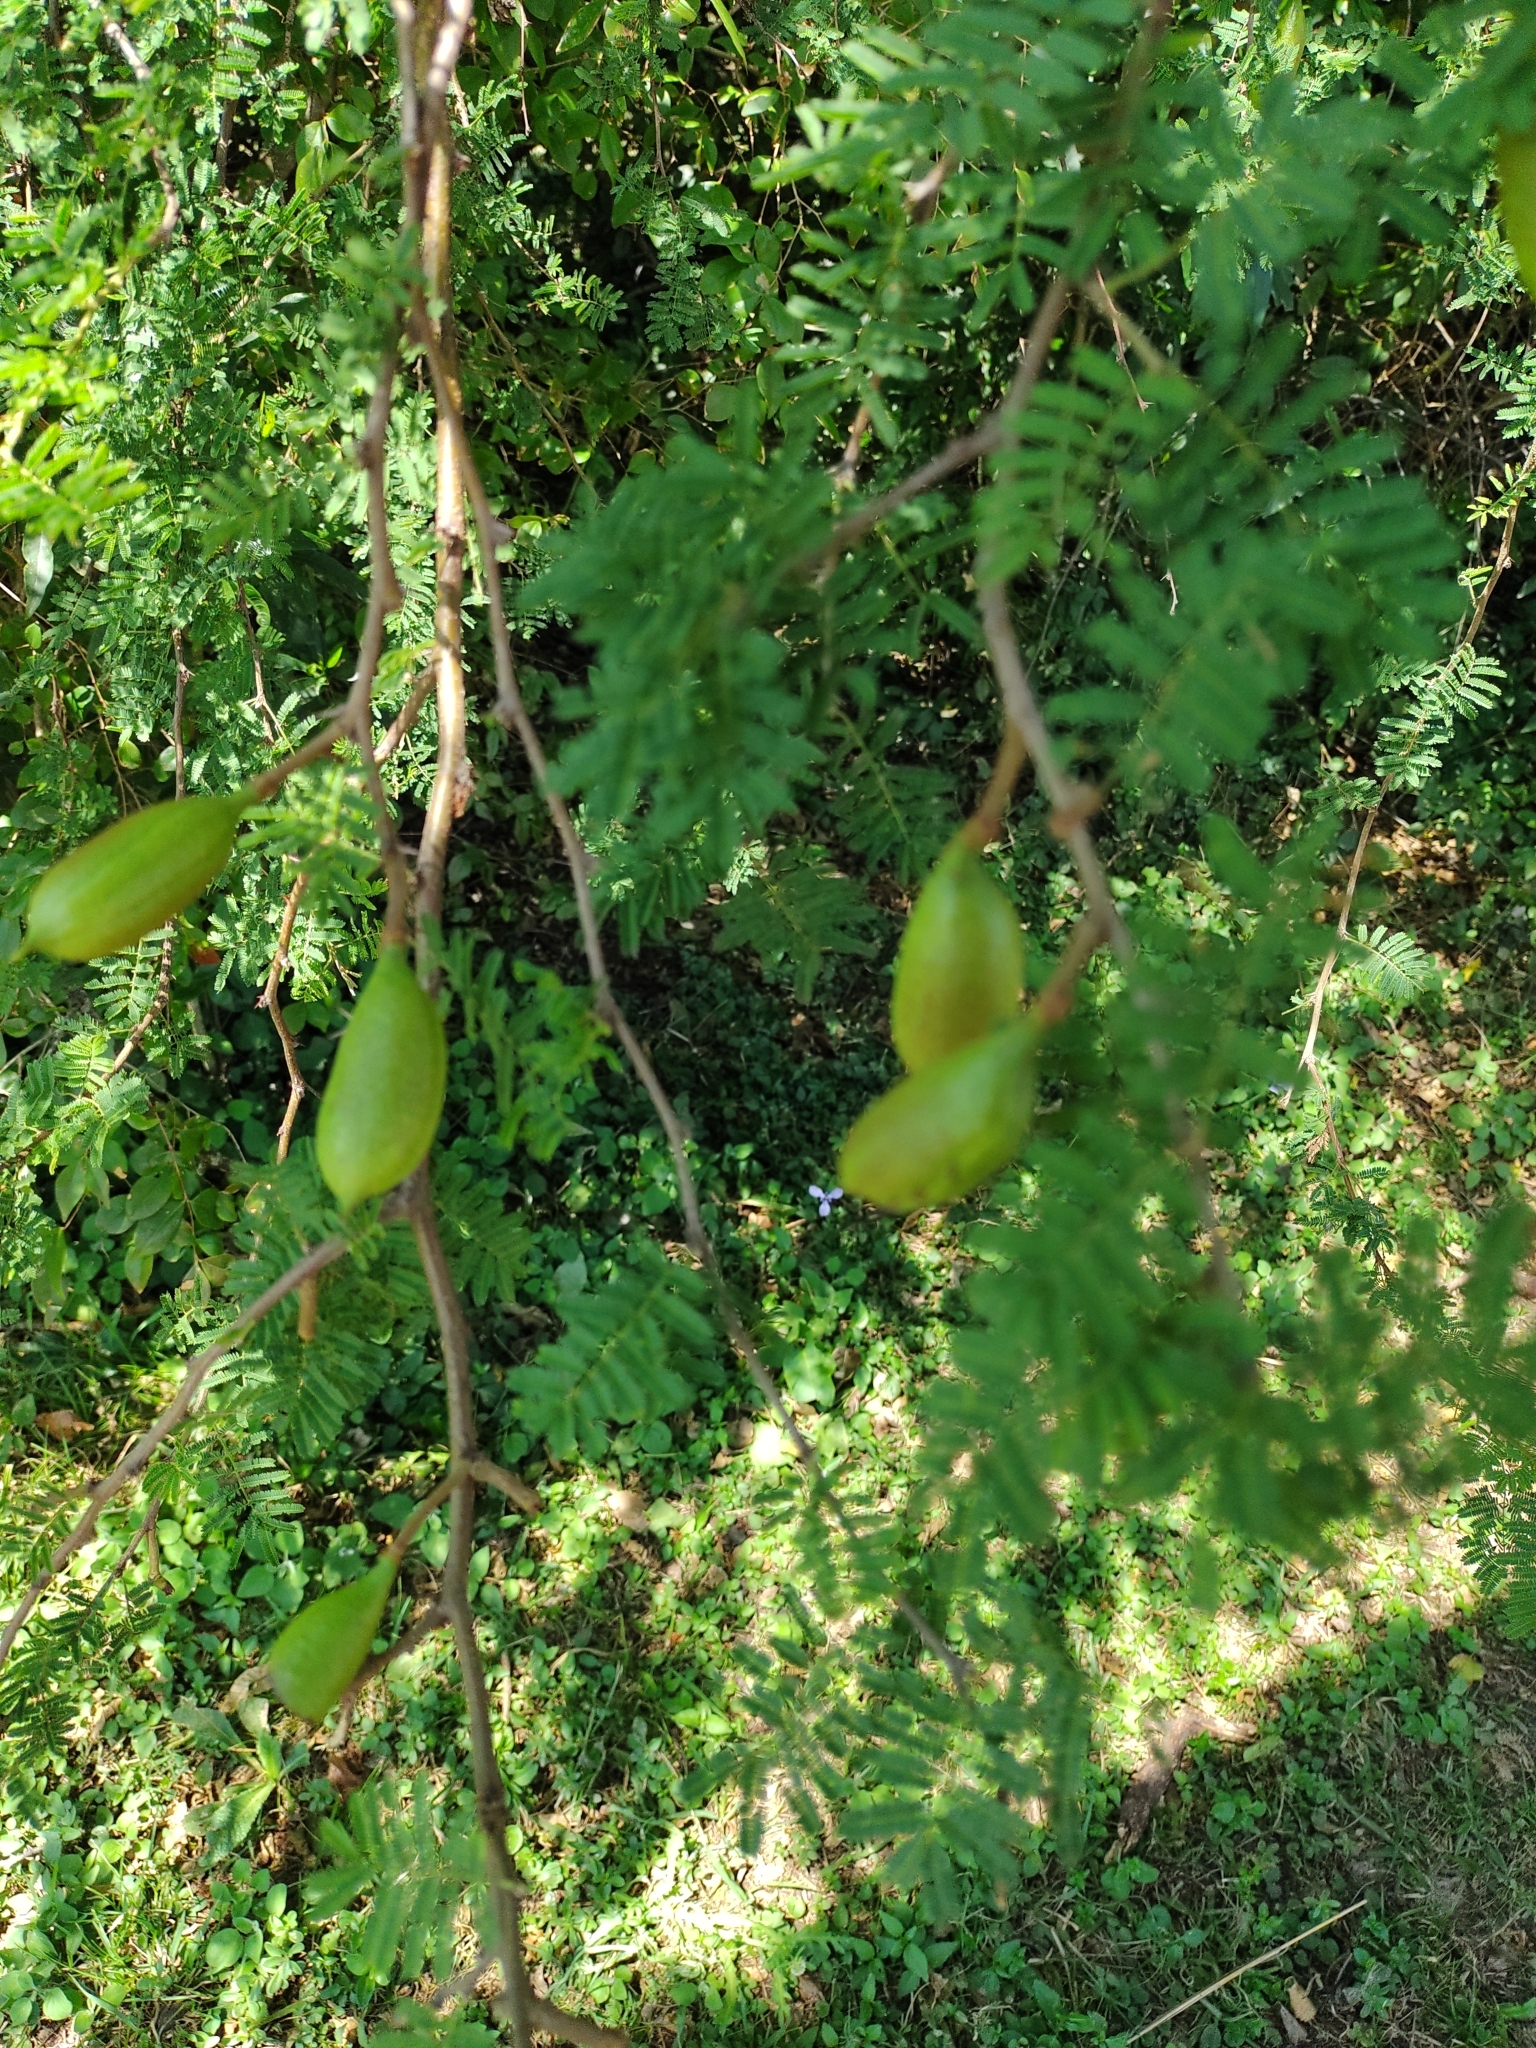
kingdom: Plantae
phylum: Tracheophyta
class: Magnoliopsida
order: Fabales
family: Fabaceae
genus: Vachellia
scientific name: Vachellia caven
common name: Roman cassie
